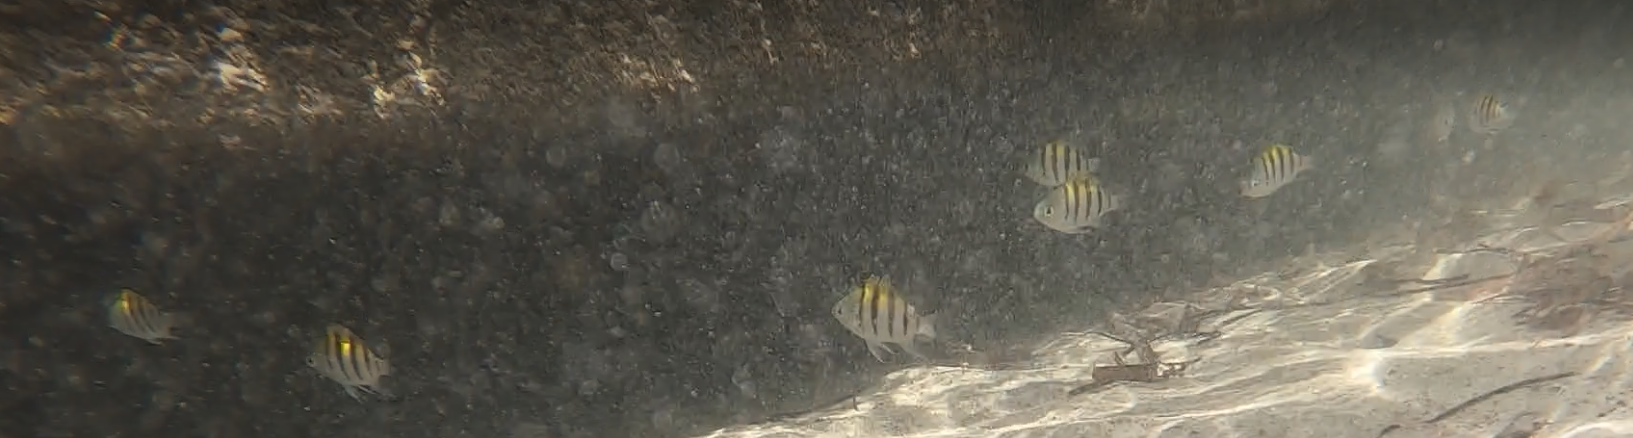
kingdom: Animalia
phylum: Chordata
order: Perciformes
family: Pomacentridae
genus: Abudefduf
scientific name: Abudefduf saxatilis
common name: Sergeant major
